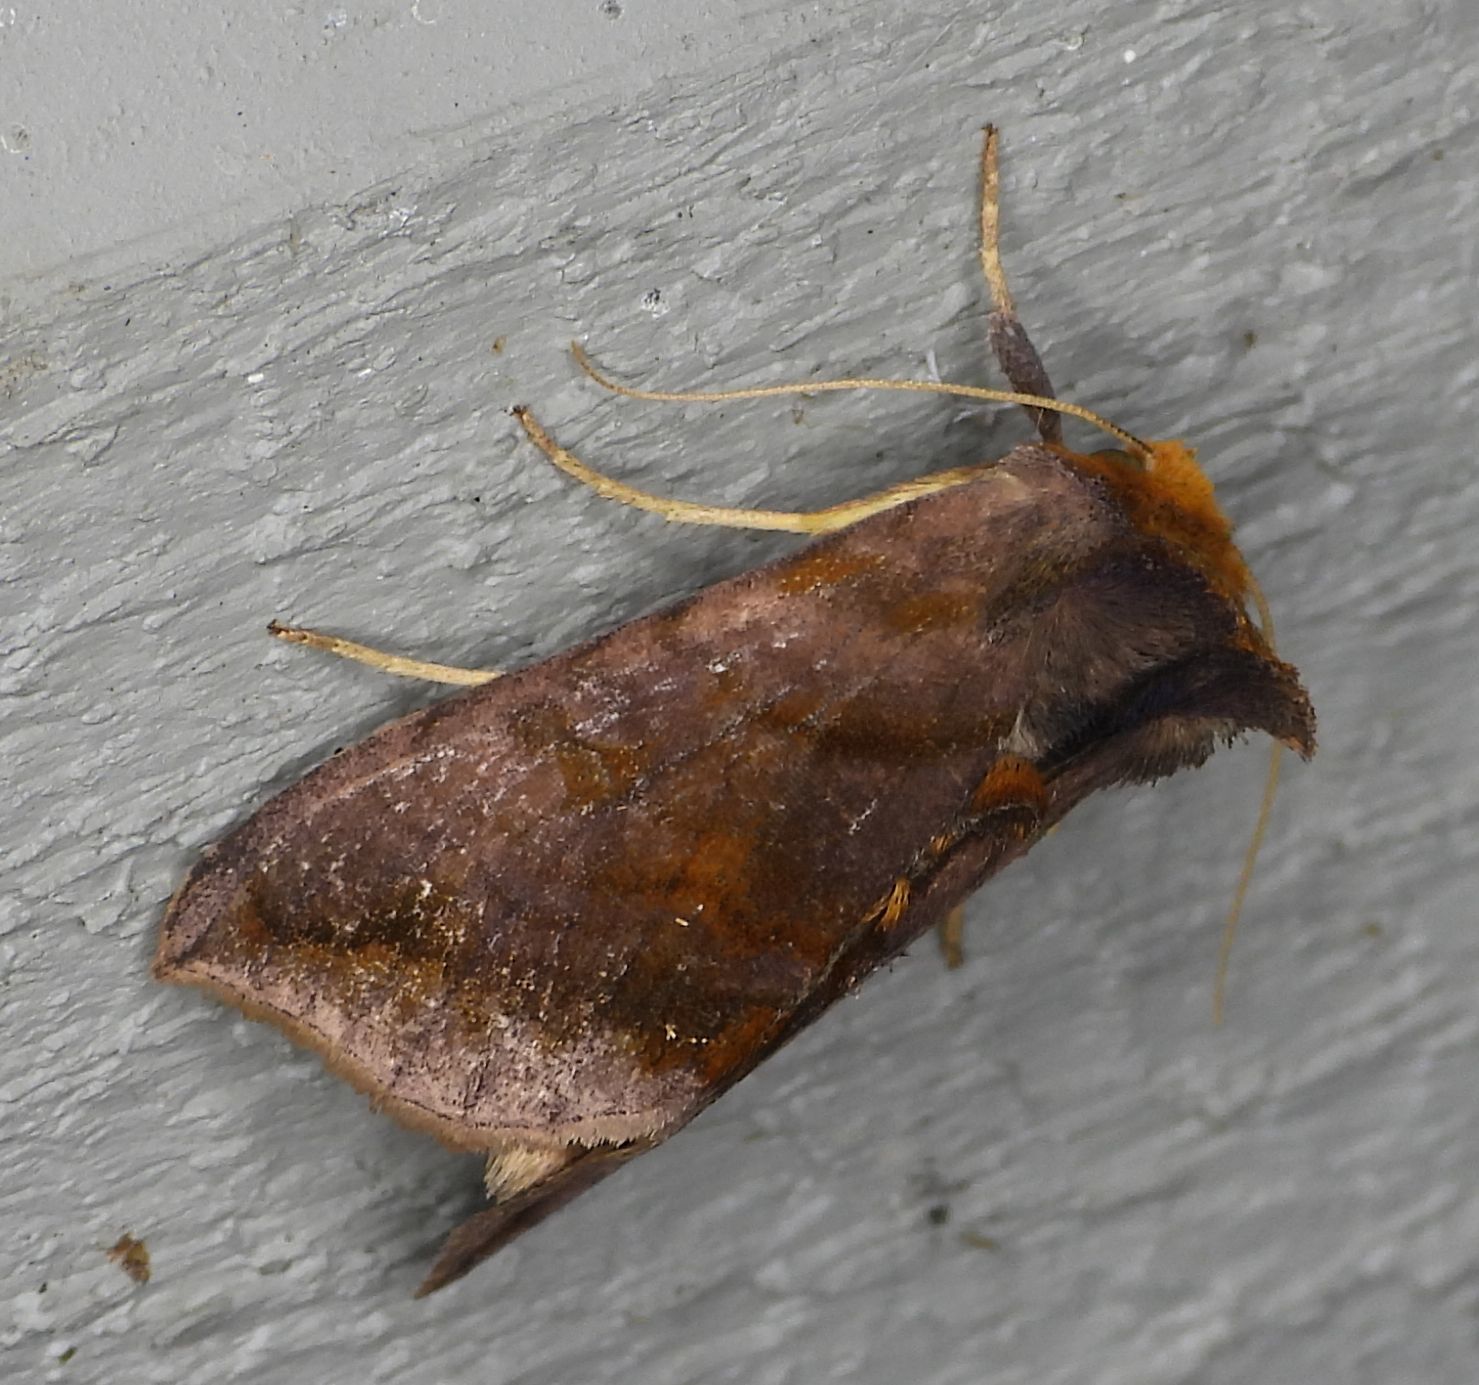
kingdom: Animalia
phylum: Arthropoda
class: Insecta
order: Lepidoptera
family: Noctuidae
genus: Allagrapha
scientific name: Allagrapha aerea
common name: Unspotted looper moth
